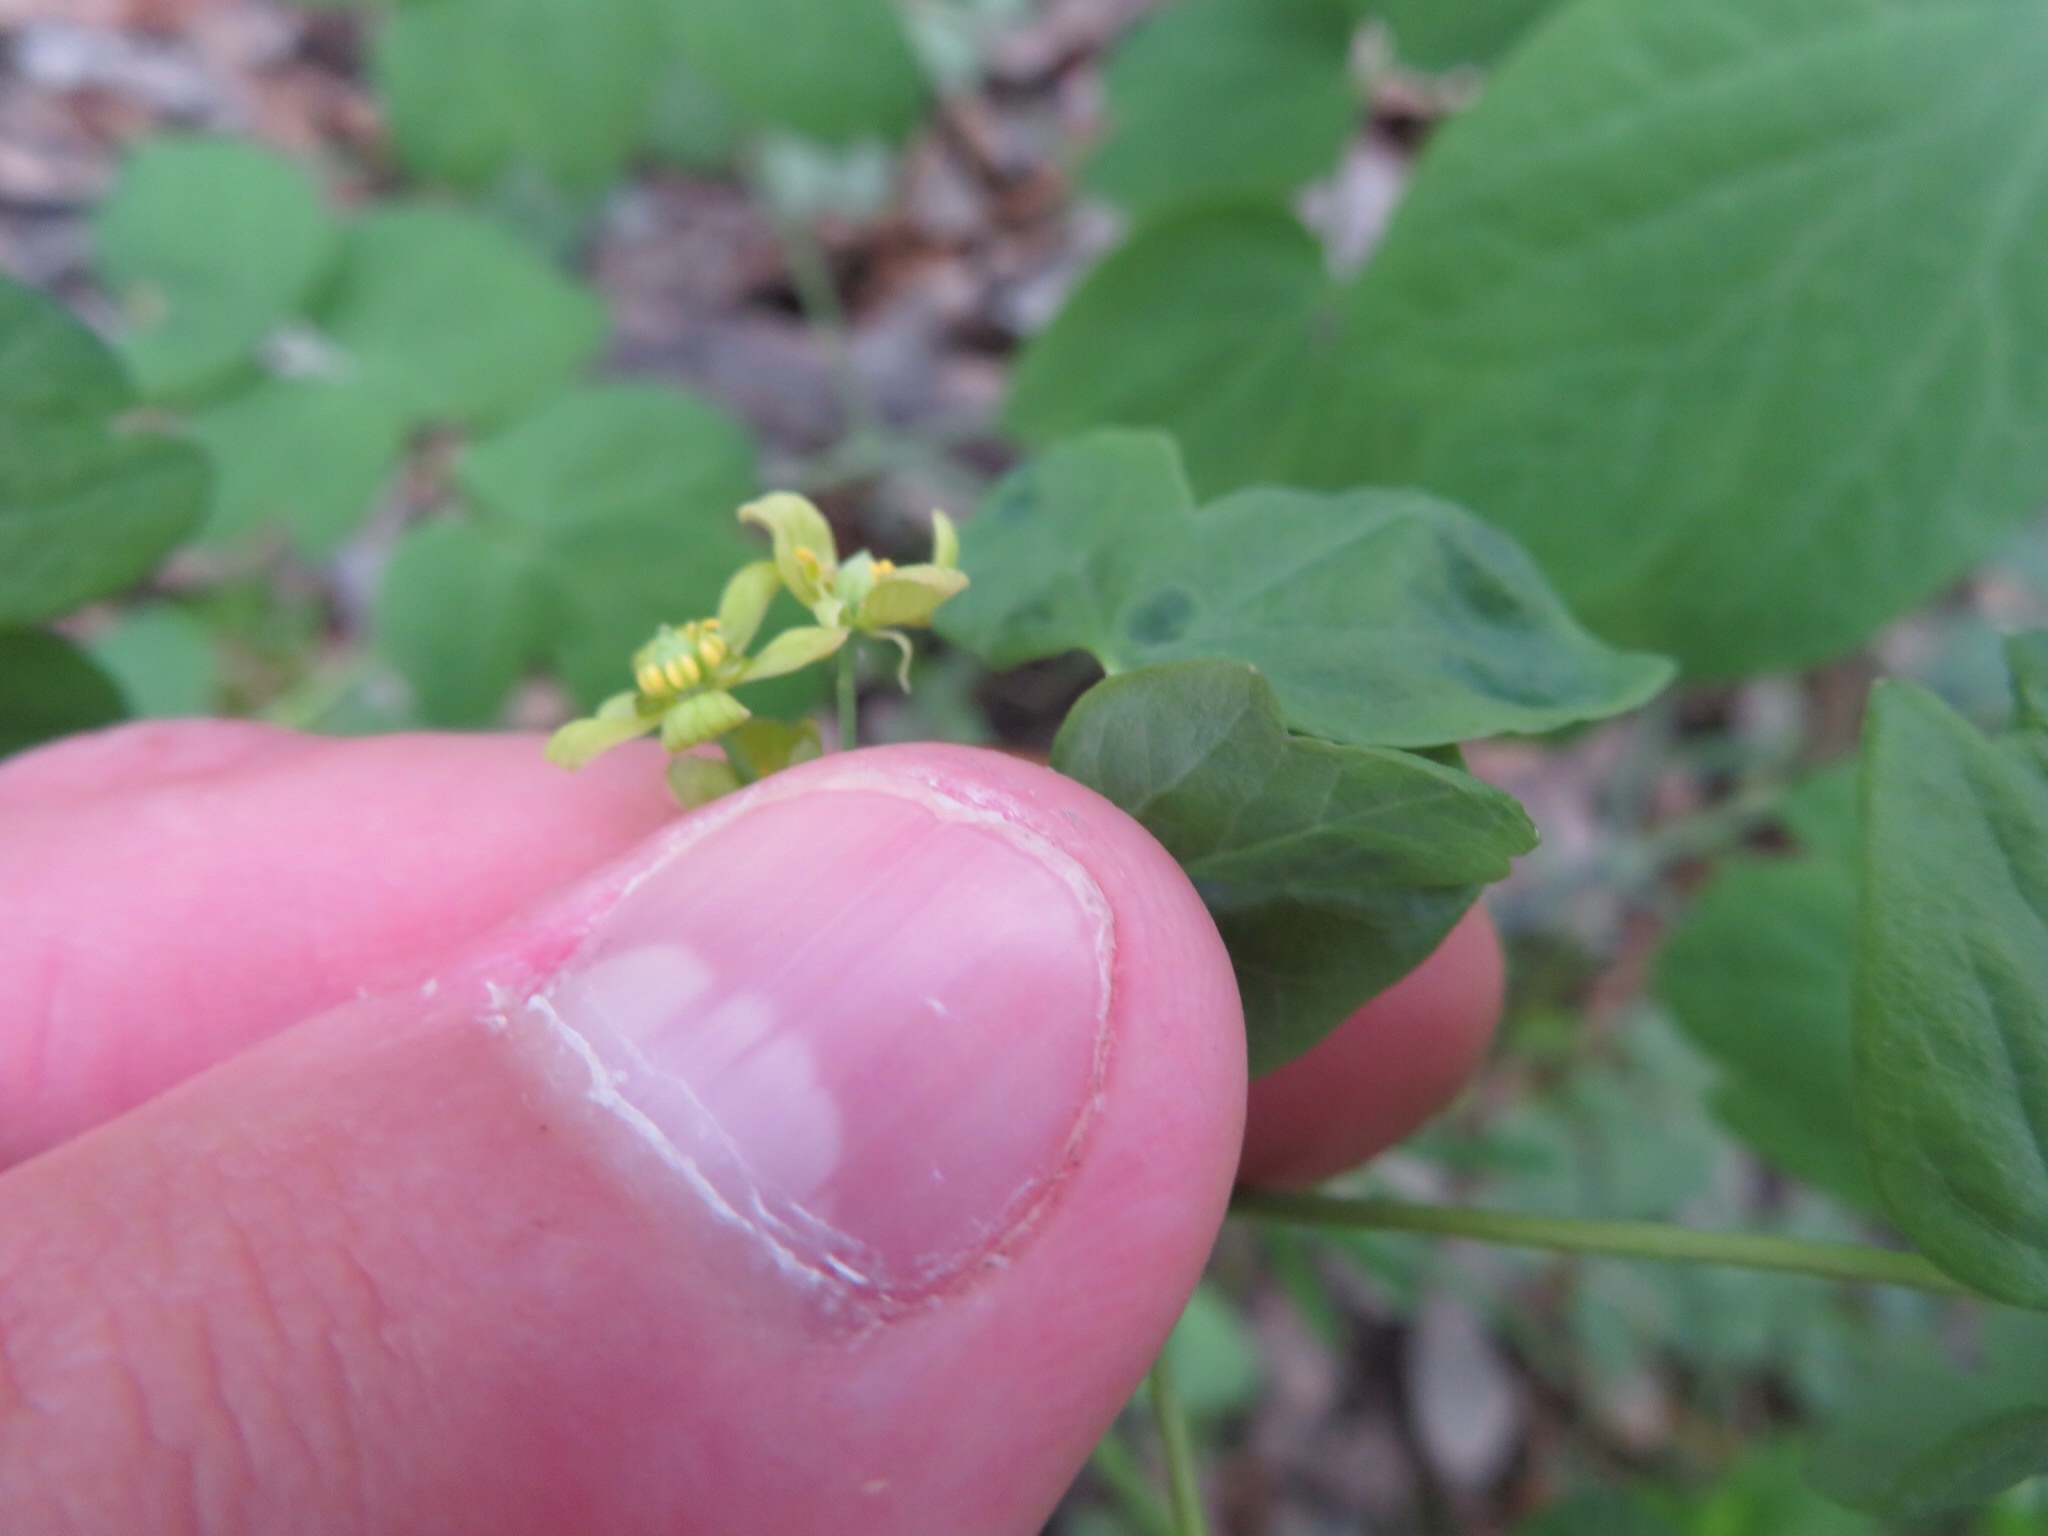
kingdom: Plantae
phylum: Tracheophyta
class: Magnoliopsida
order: Ranunculales
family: Berberidaceae
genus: Caulophyllum
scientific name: Caulophyllum thalictroides
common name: Blue cohosh
